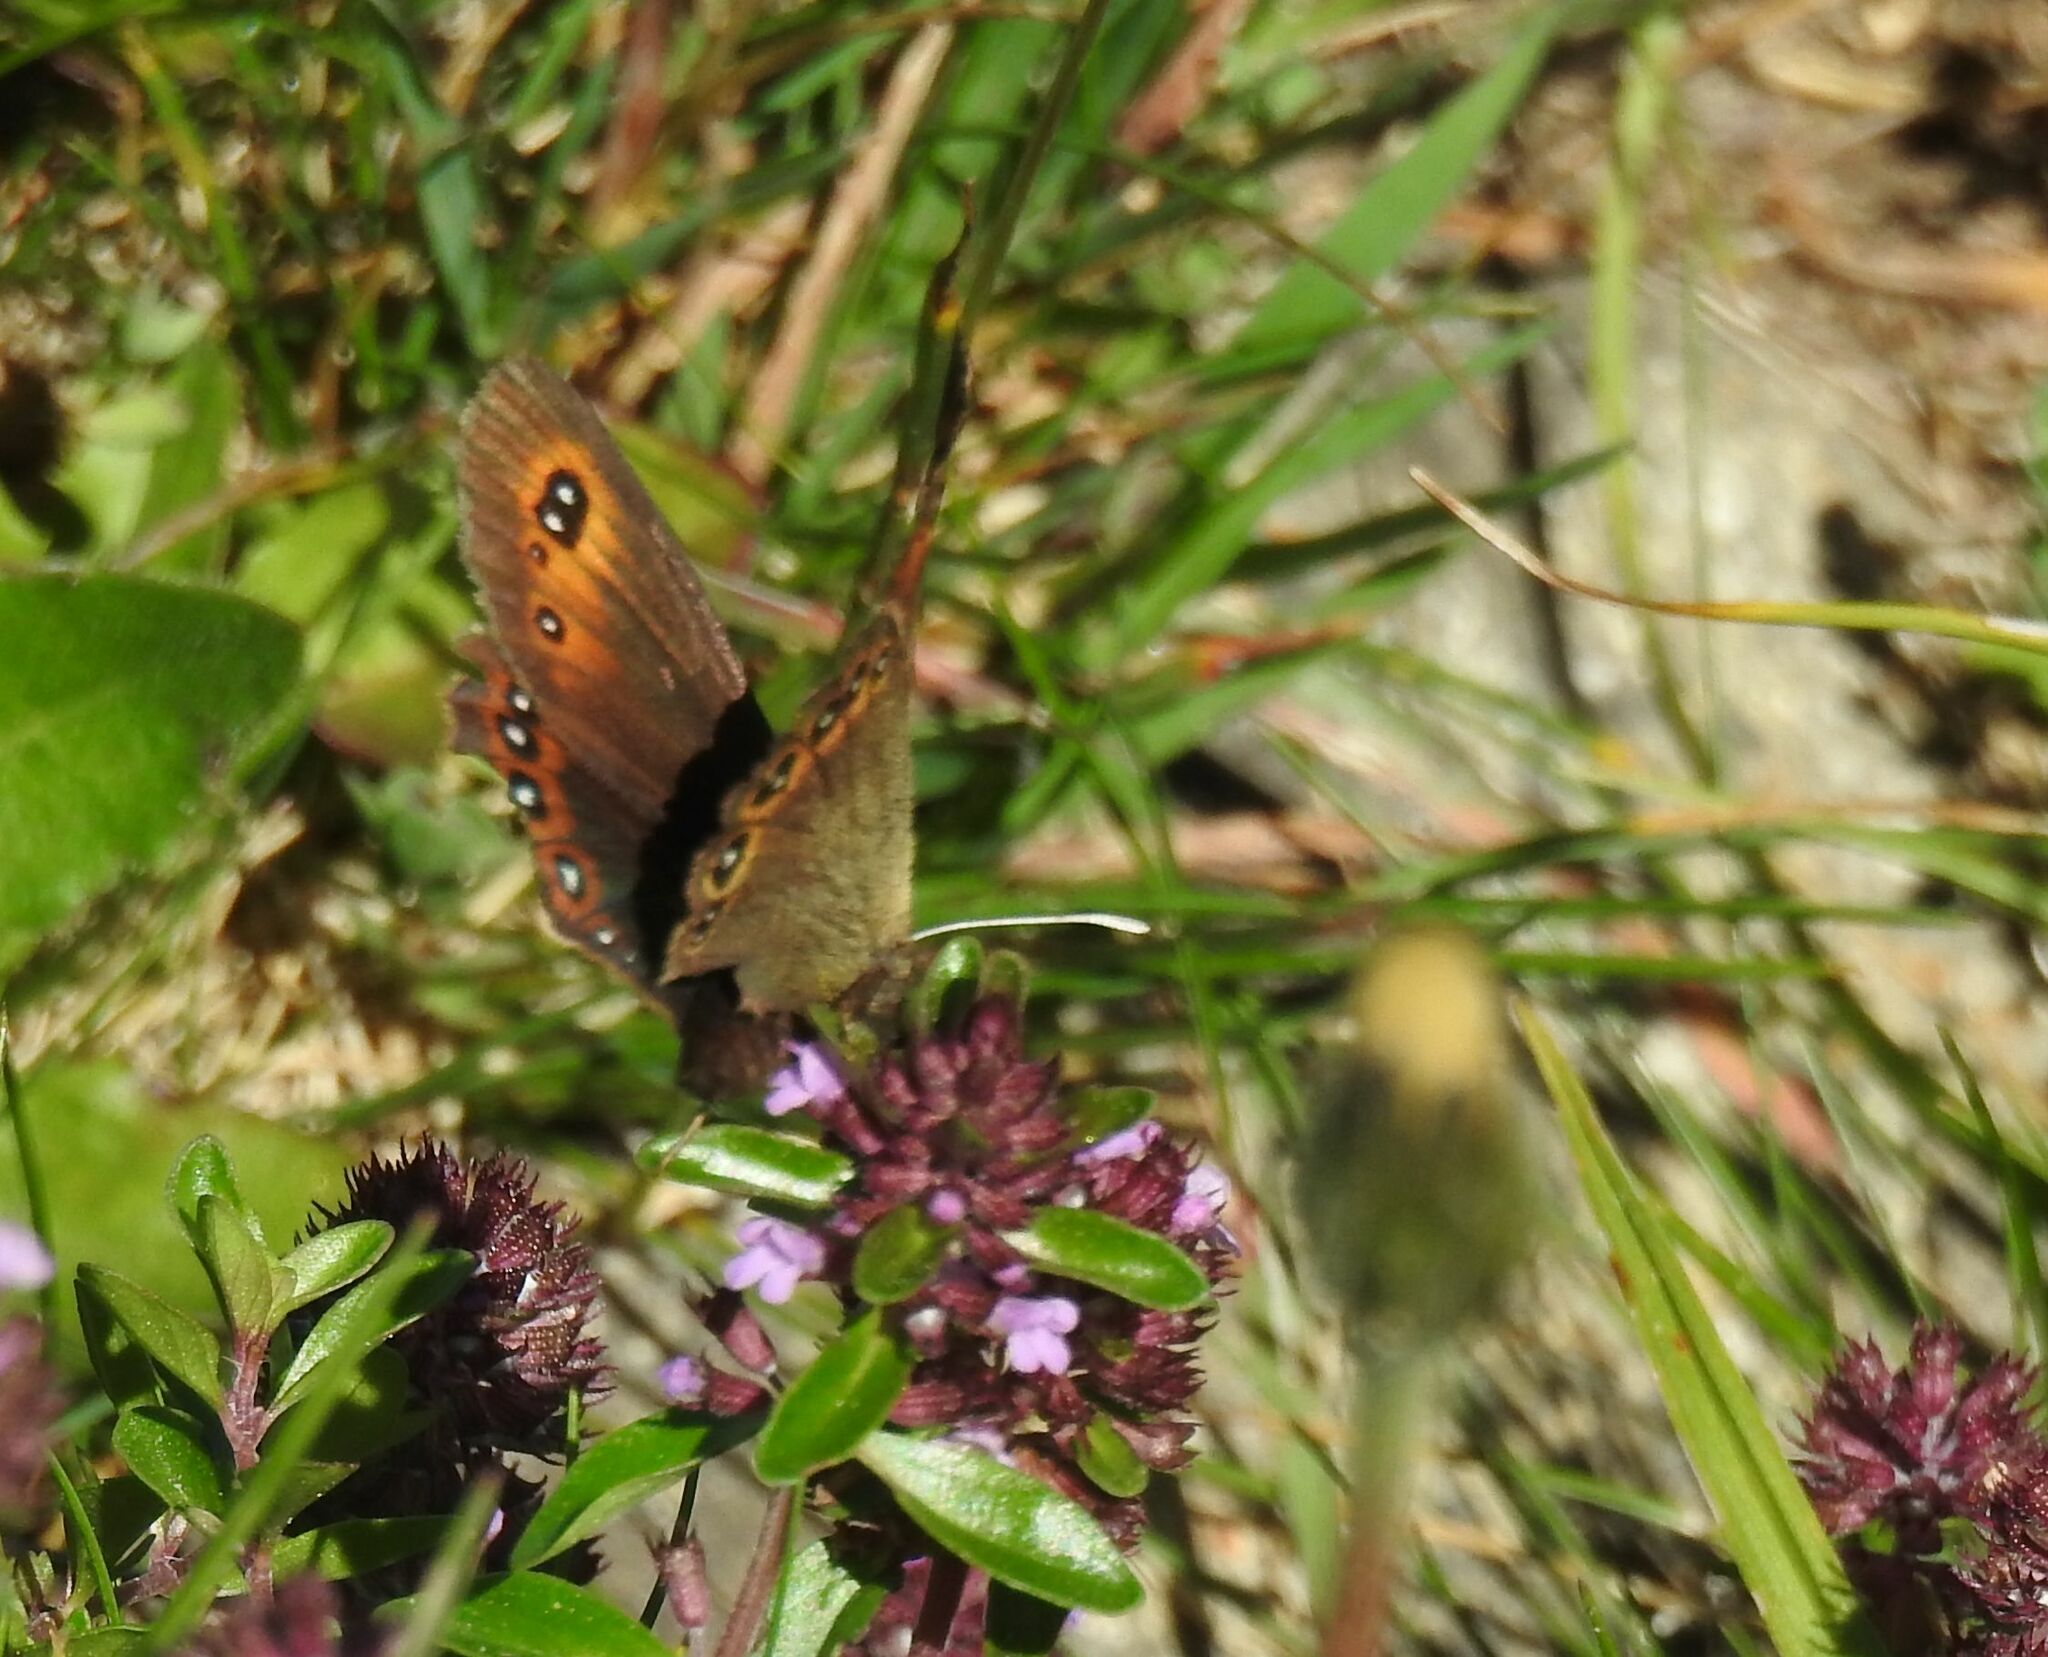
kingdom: Animalia
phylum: Arthropoda
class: Insecta
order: Lepidoptera
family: Nymphalidae
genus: Erebia
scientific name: Erebia oeme
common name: Bright-eyed ringlet
